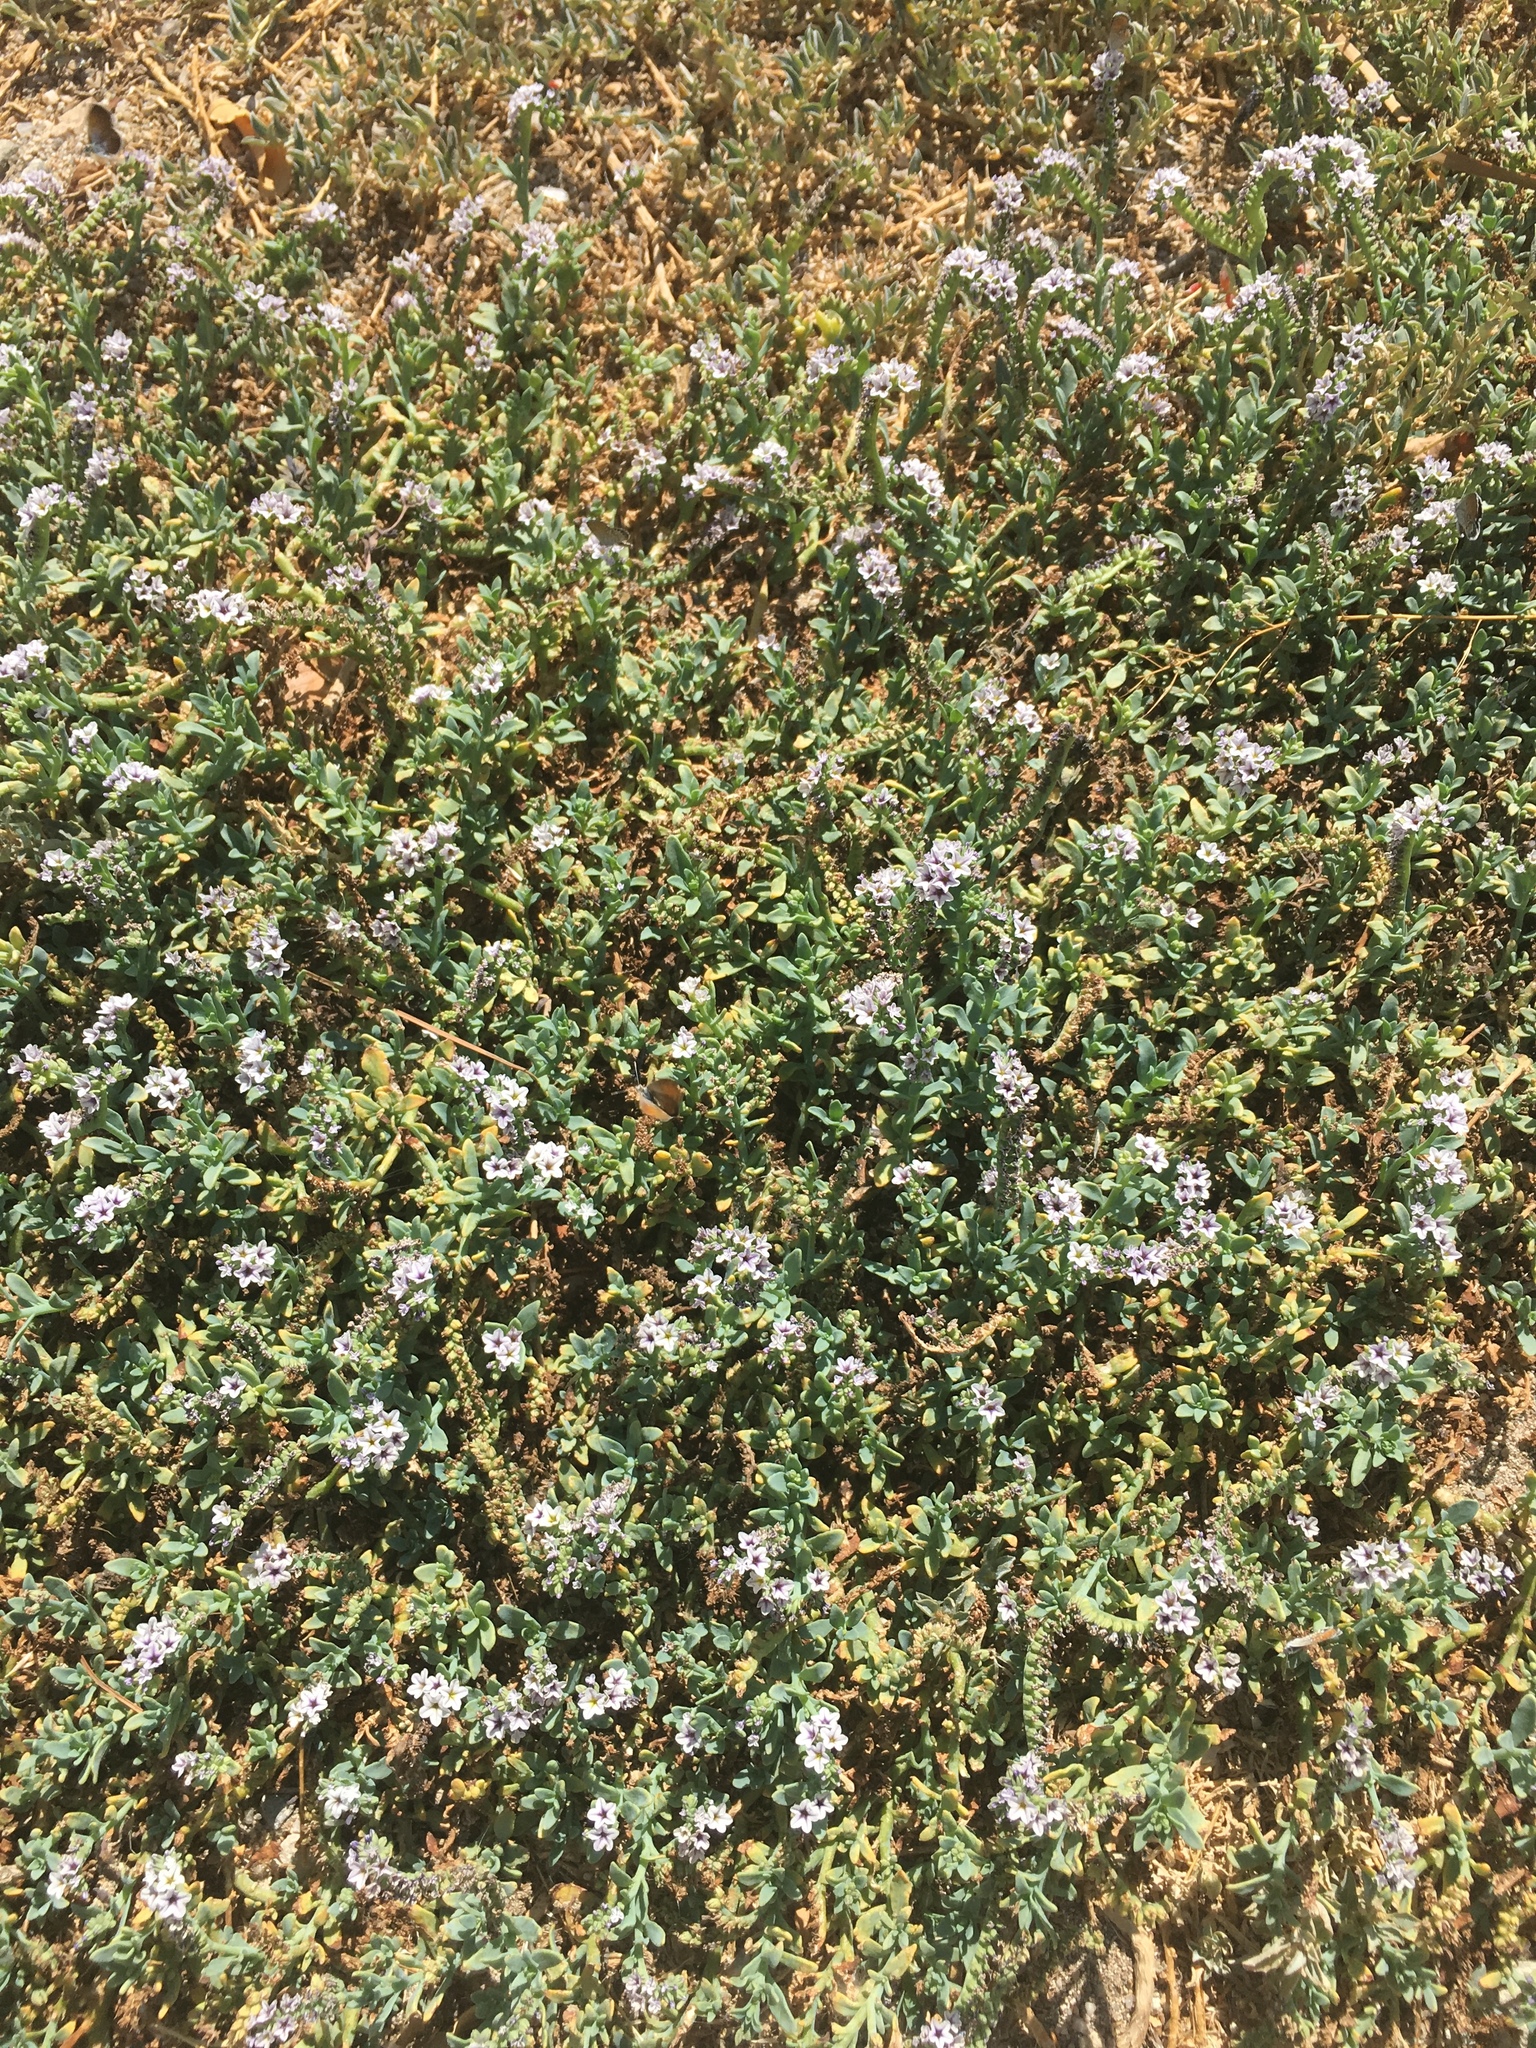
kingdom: Plantae
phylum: Tracheophyta
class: Magnoliopsida
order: Boraginales
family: Heliotropiaceae
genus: Heliotropium
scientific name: Heliotropium curassavicum
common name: Seaside heliotrope
